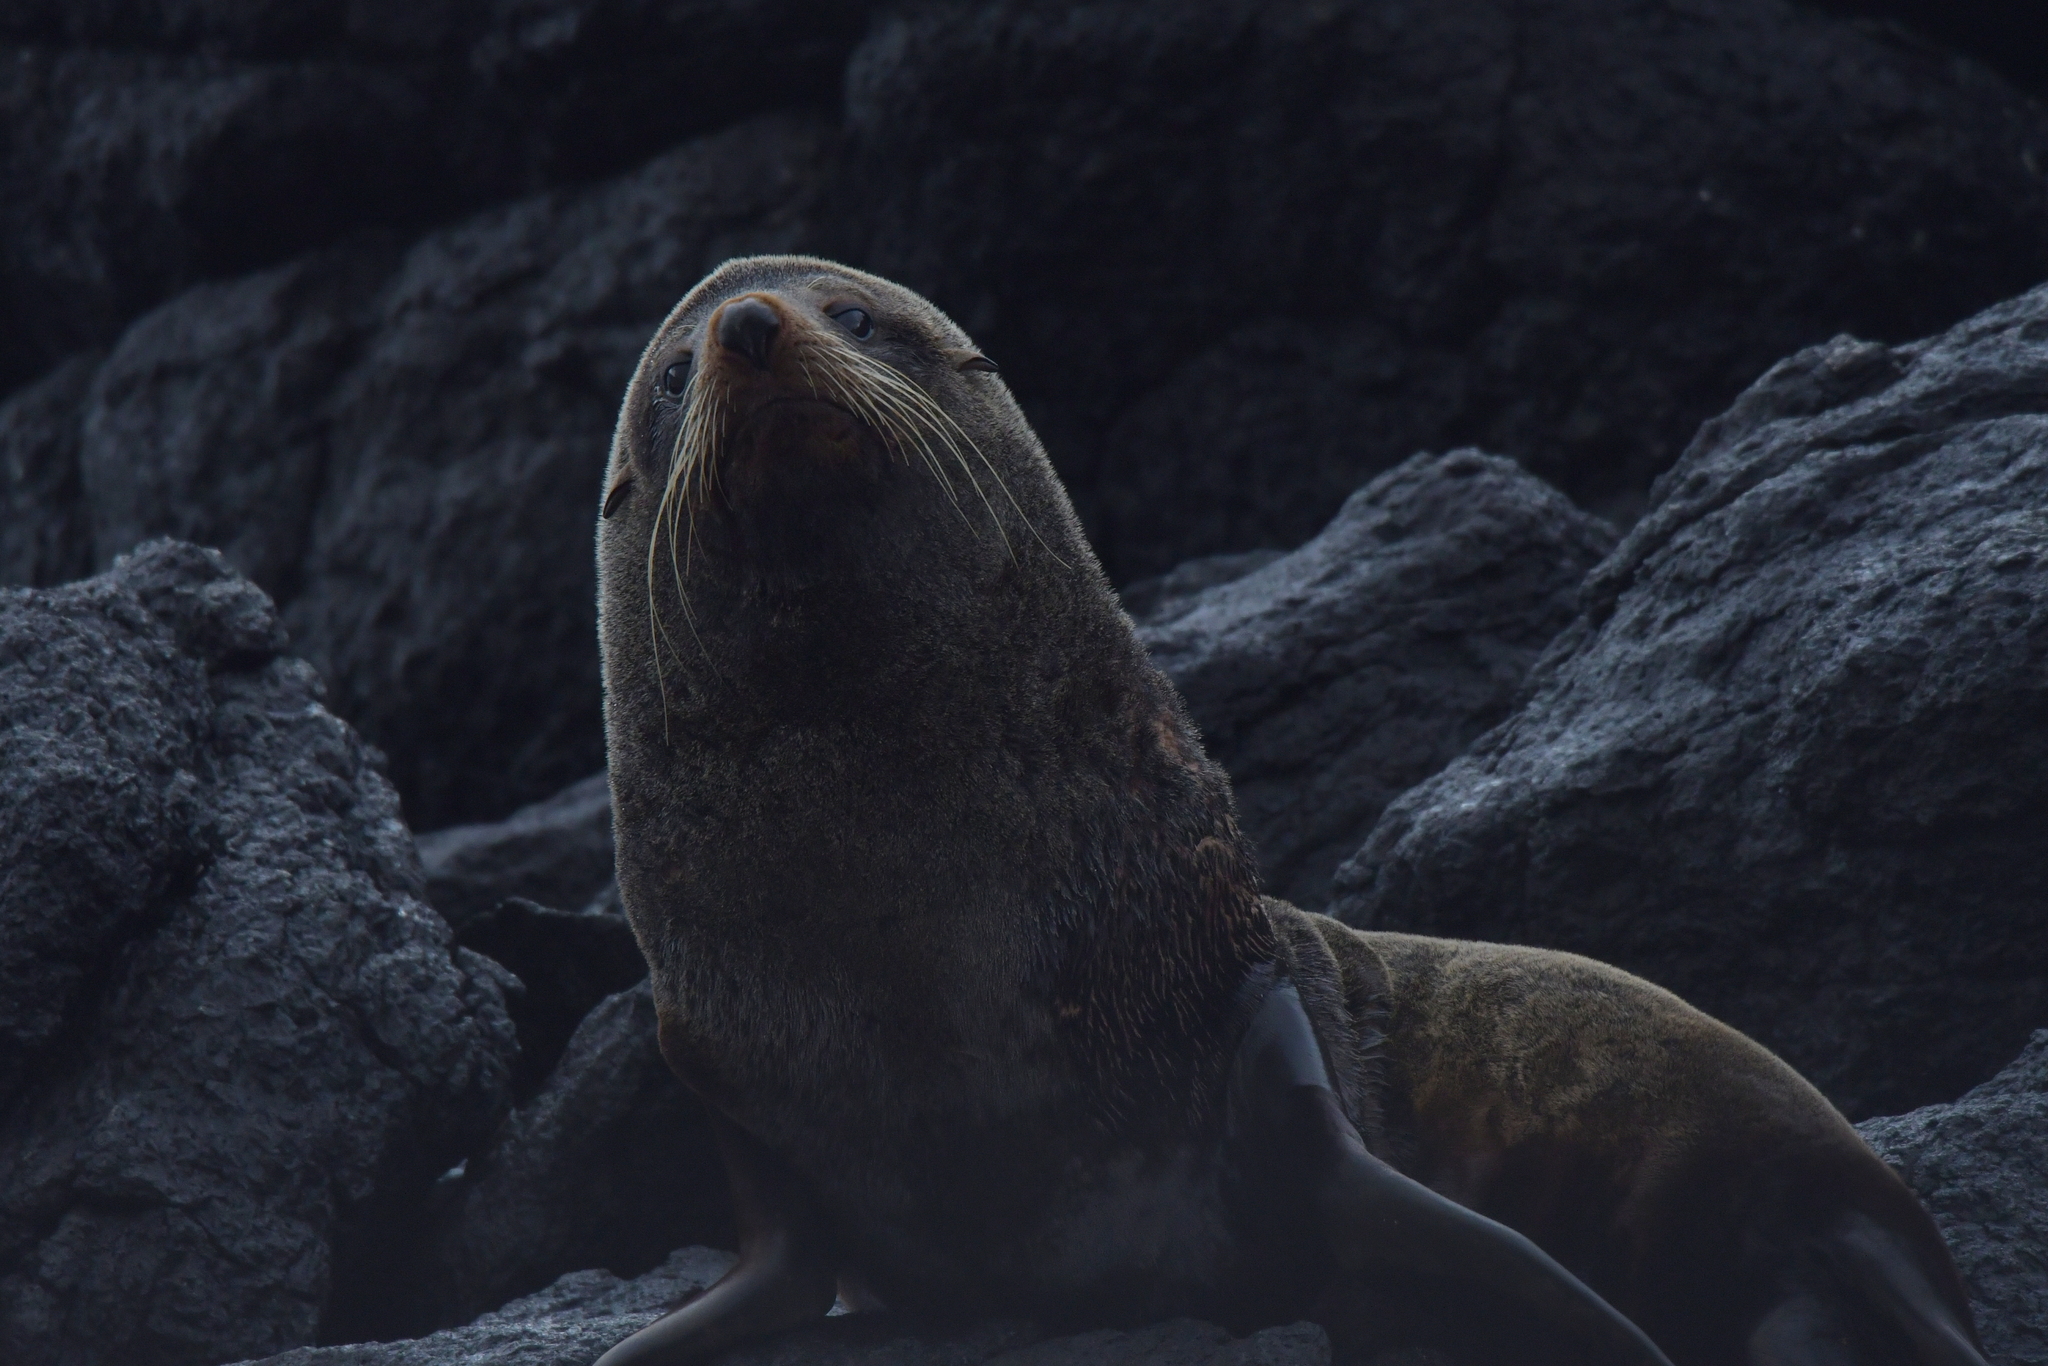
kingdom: Animalia
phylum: Chordata
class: Mammalia
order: Carnivora
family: Otariidae
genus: Arctocephalus
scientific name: Arctocephalus forsteri
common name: New zealand fur seal
